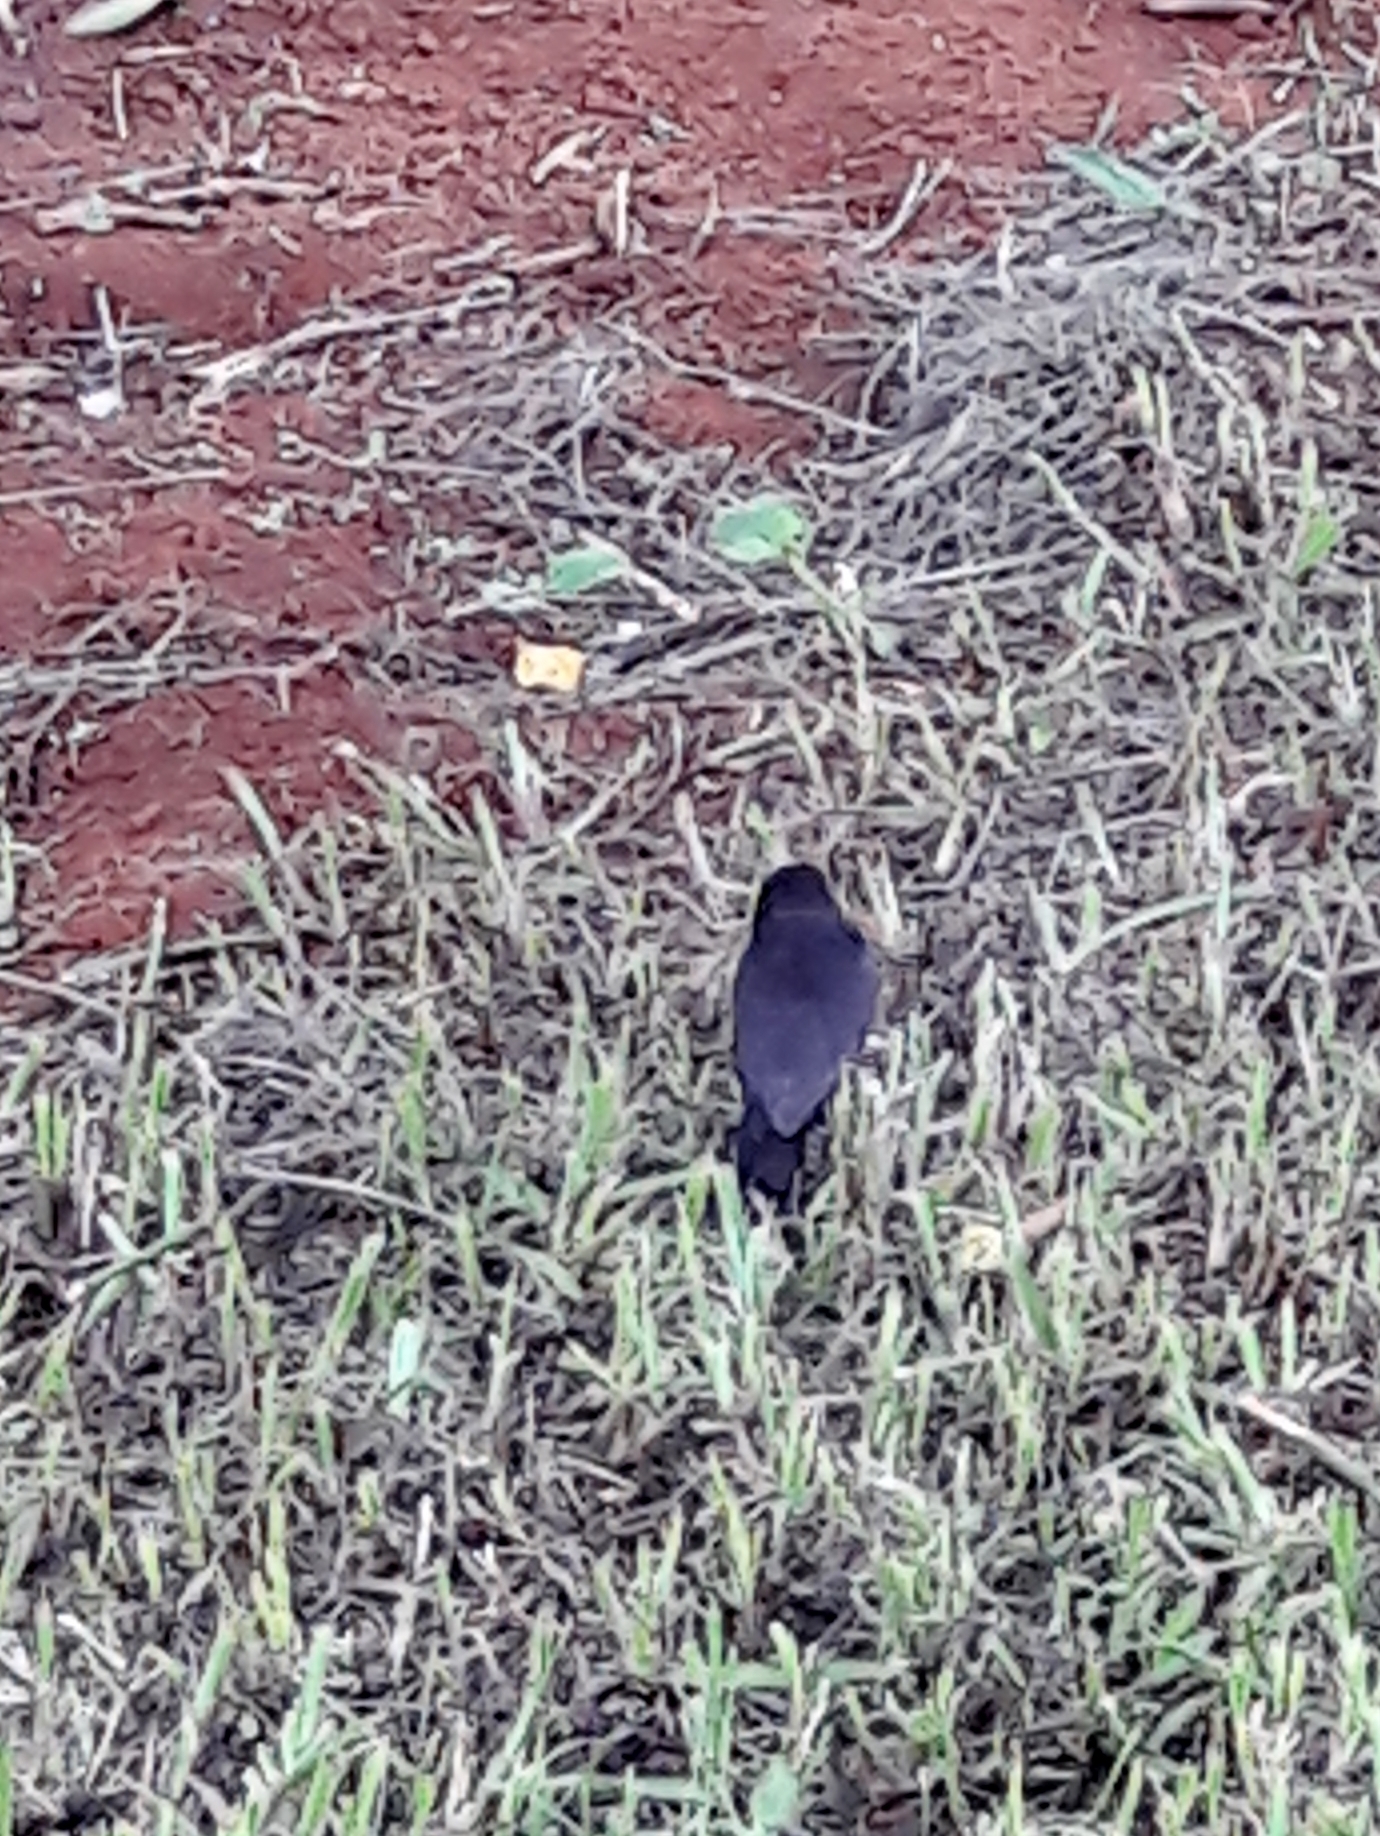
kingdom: Animalia
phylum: Chordata
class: Aves
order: Passeriformes
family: Icteridae
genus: Molothrus
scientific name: Molothrus bonariensis
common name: Shiny cowbird
